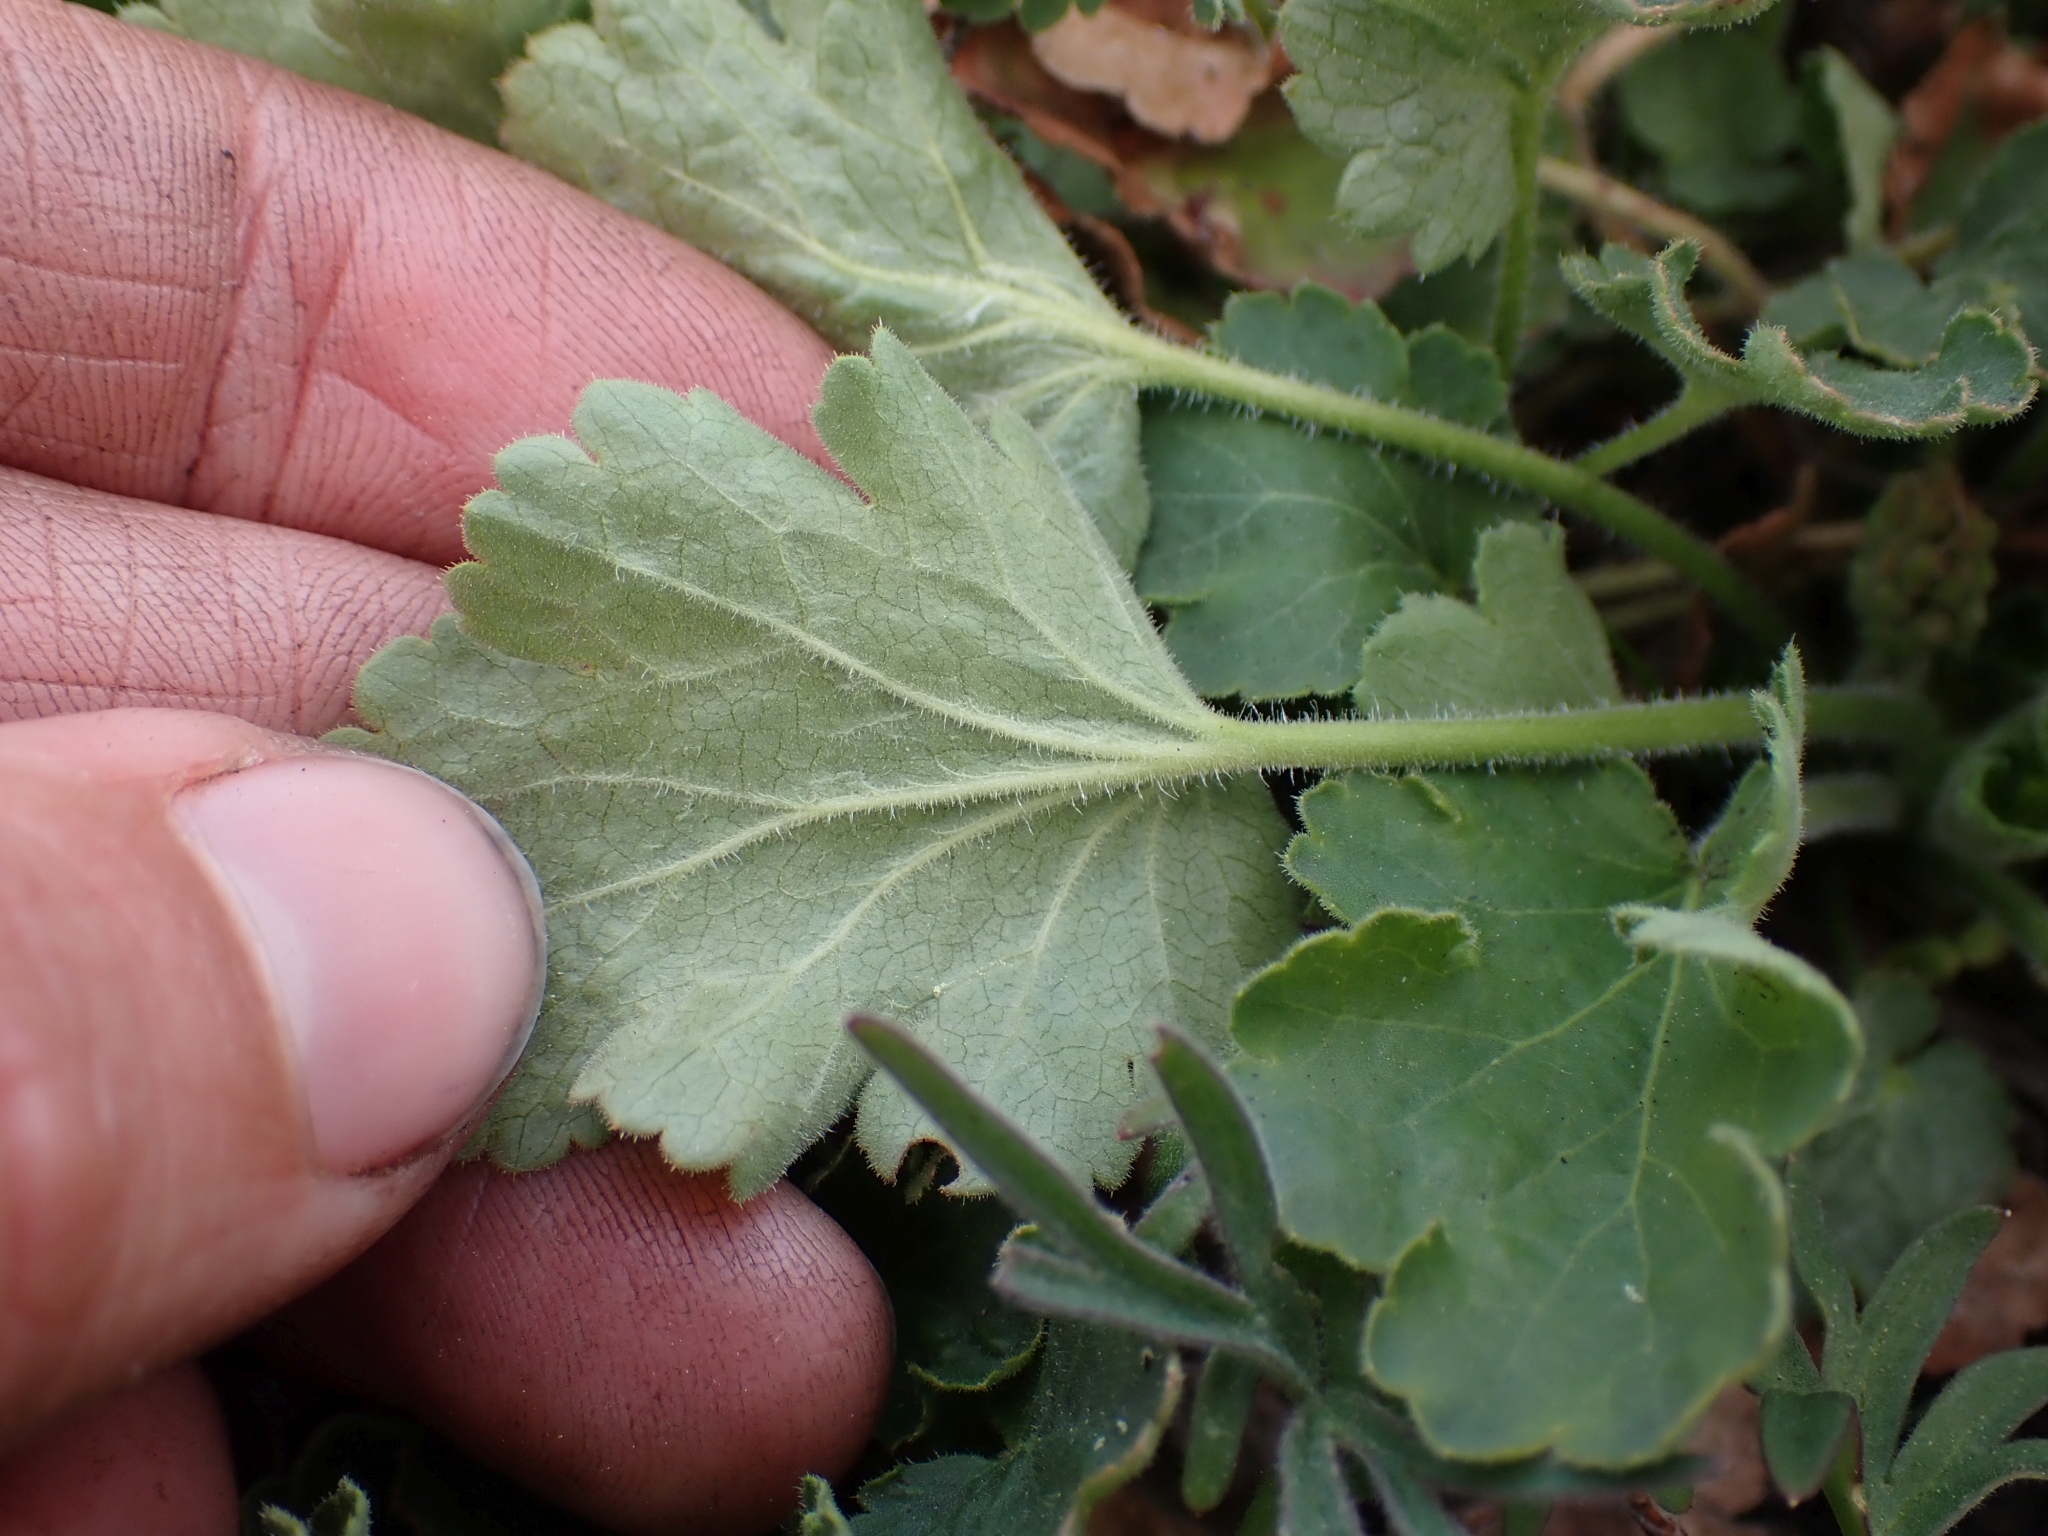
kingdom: Plantae
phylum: Tracheophyta
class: Magnoliopsida
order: Saxifragales
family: Saxifragaceae
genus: Heuchera
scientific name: Heuchera cylindrica
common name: Mat alumroot
